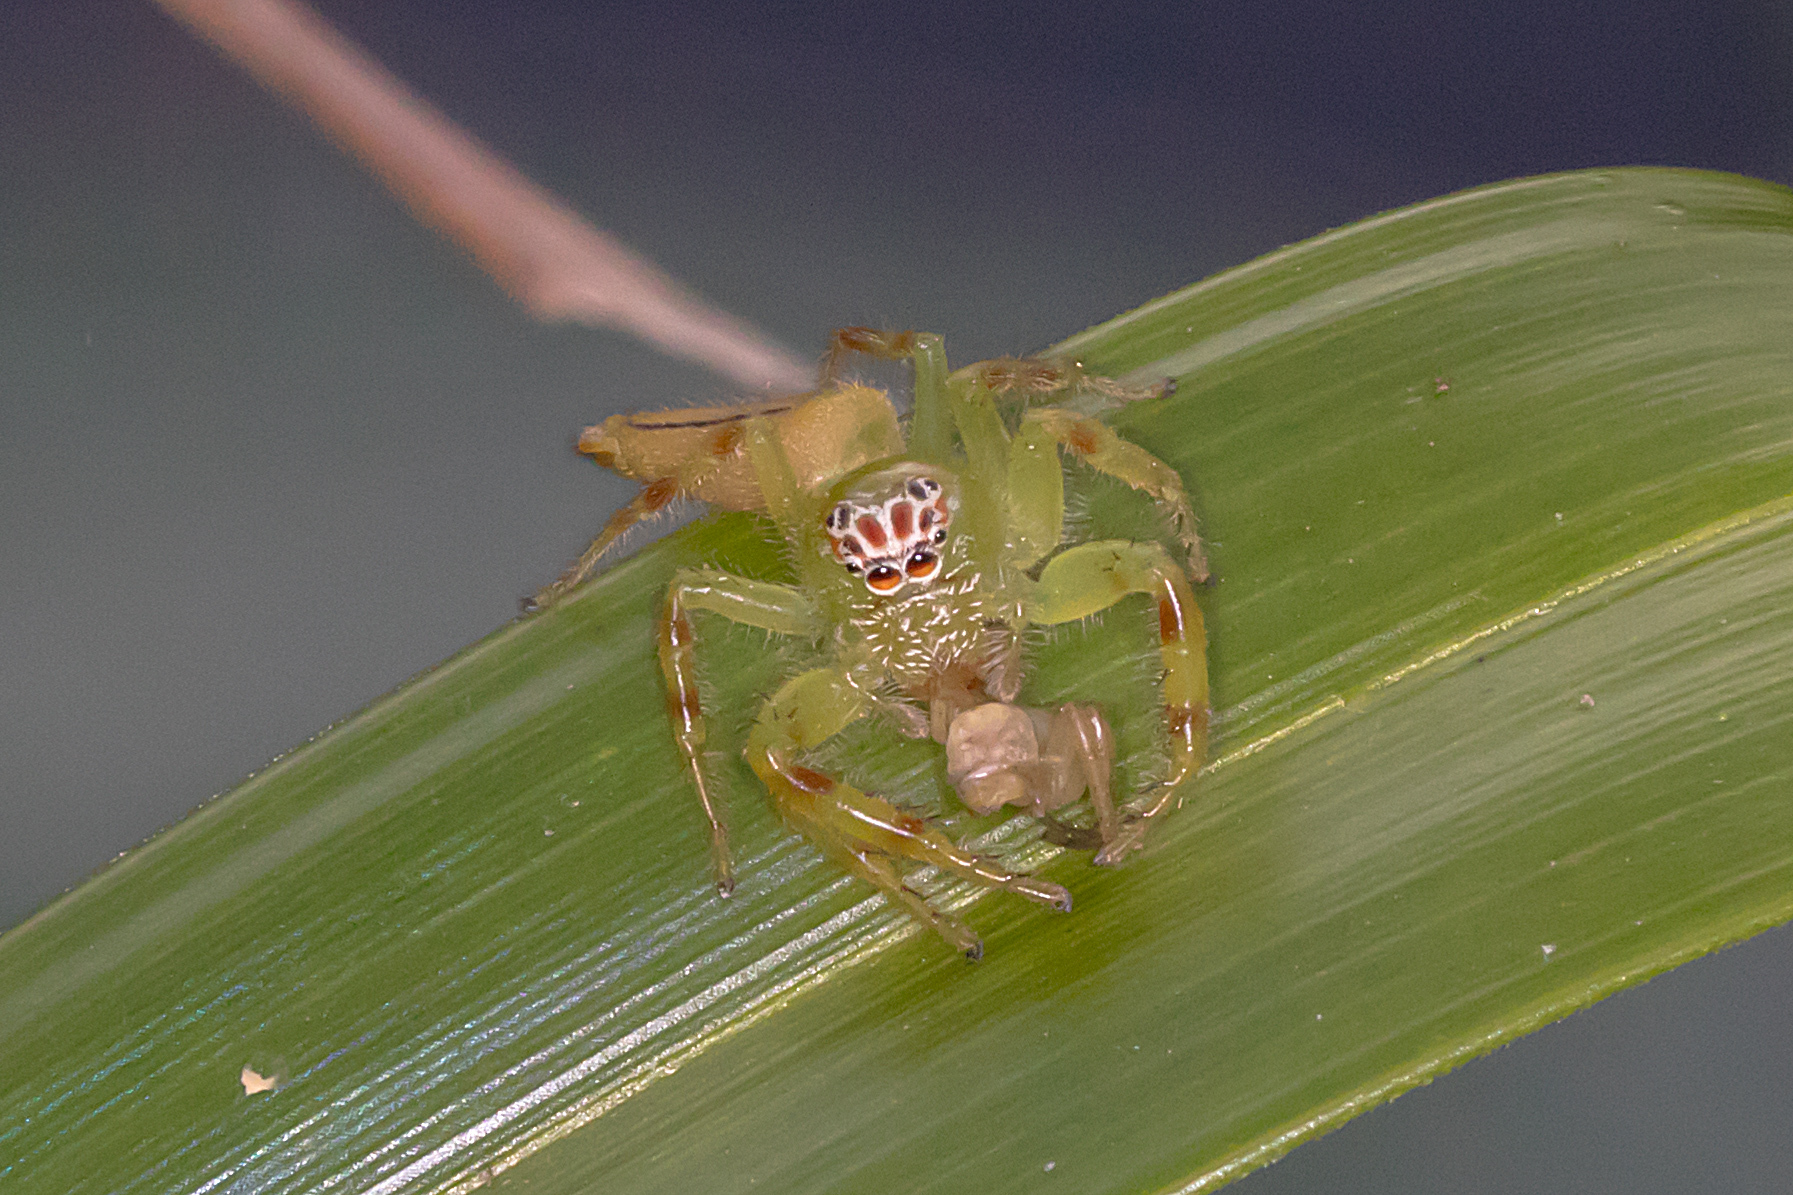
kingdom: Animalia
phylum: Arthropoda
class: Arachnida
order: Araneae
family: Salticidae
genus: Mopsus
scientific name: Mopsus mormon
